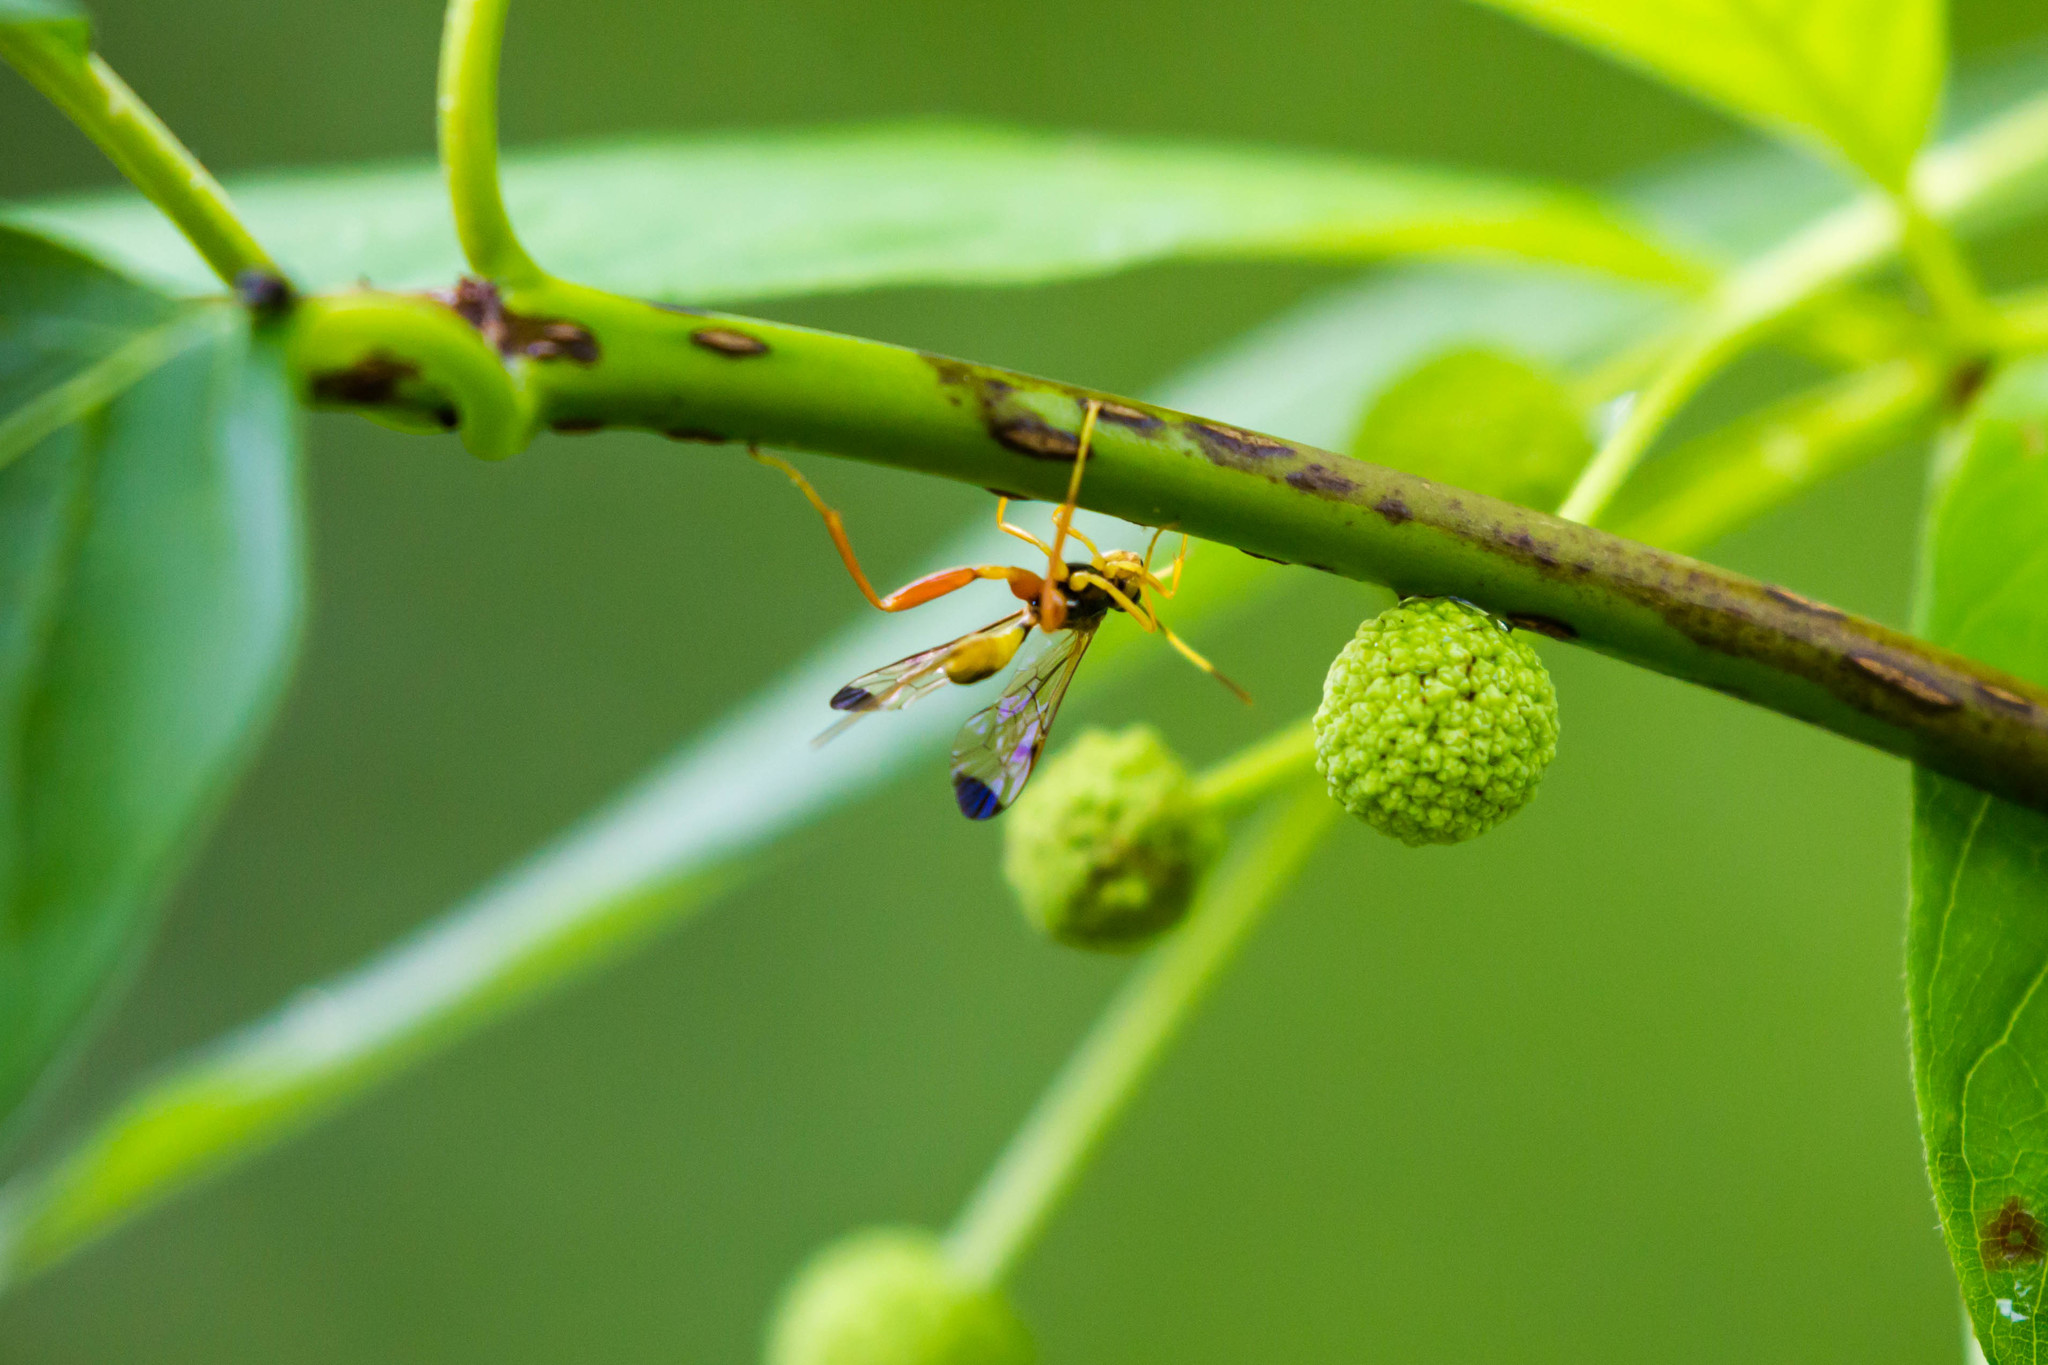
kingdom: Animalia
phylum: Arthropoda
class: Insecta
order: Hymenoptera
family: Ichneumonidae
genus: Spilopteron
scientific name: Spilopteron occiputale
